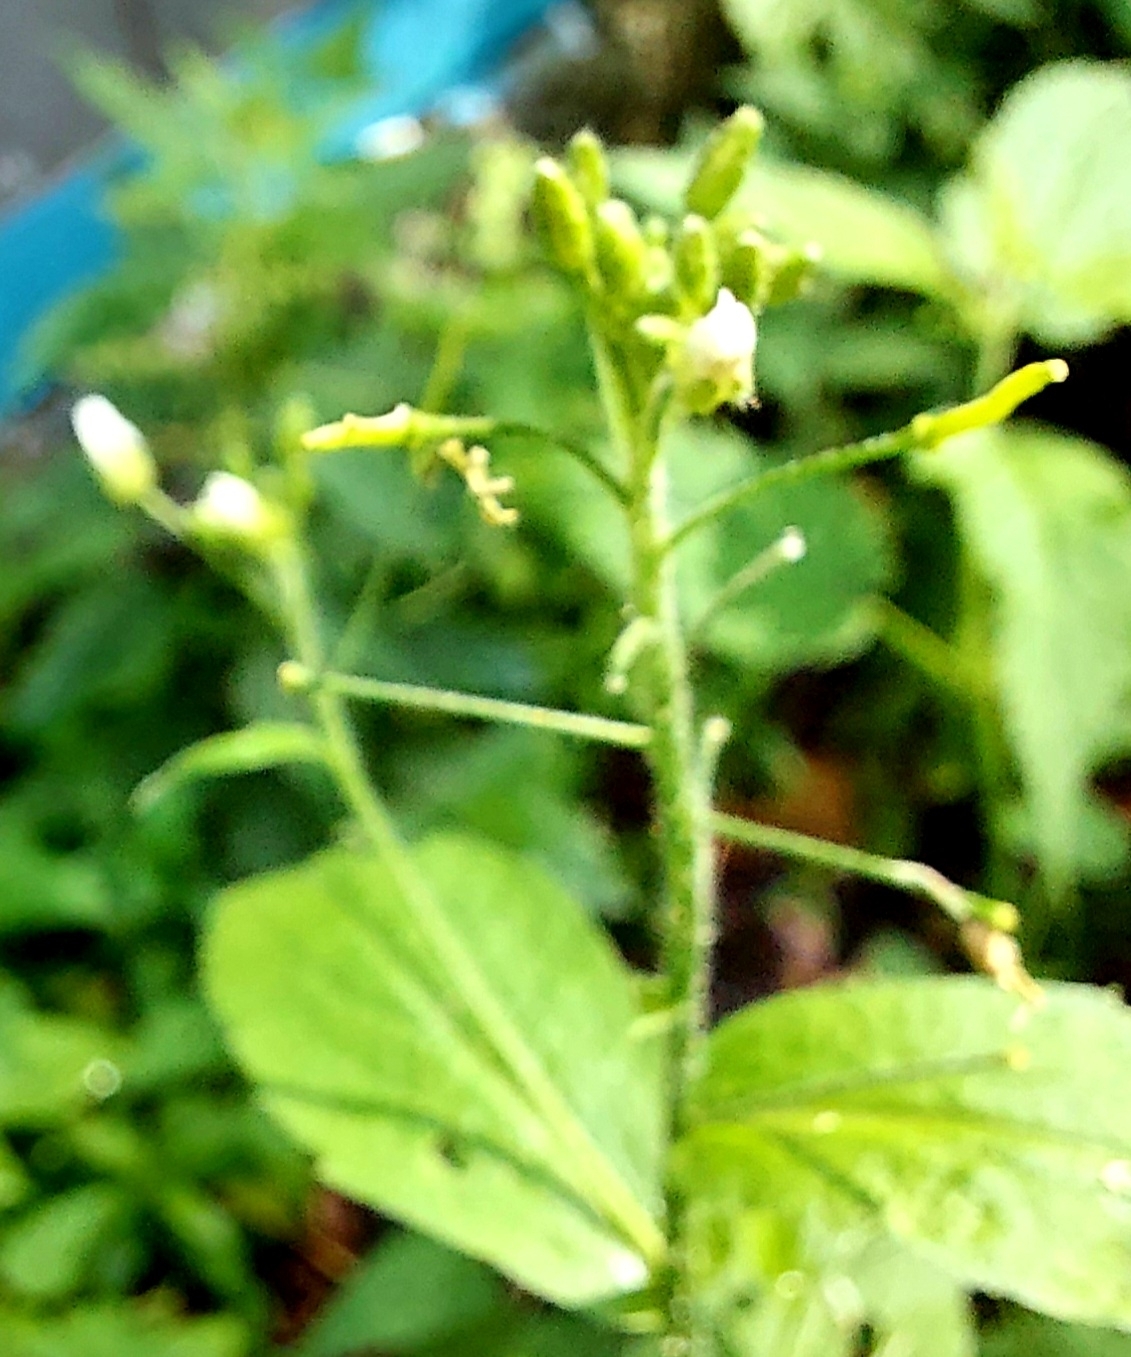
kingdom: Plantae
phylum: Tracheophyta
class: Magnoliopsida
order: Brassicales
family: Brassicaceae
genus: Catolobus
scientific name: Catolobus pendulus
